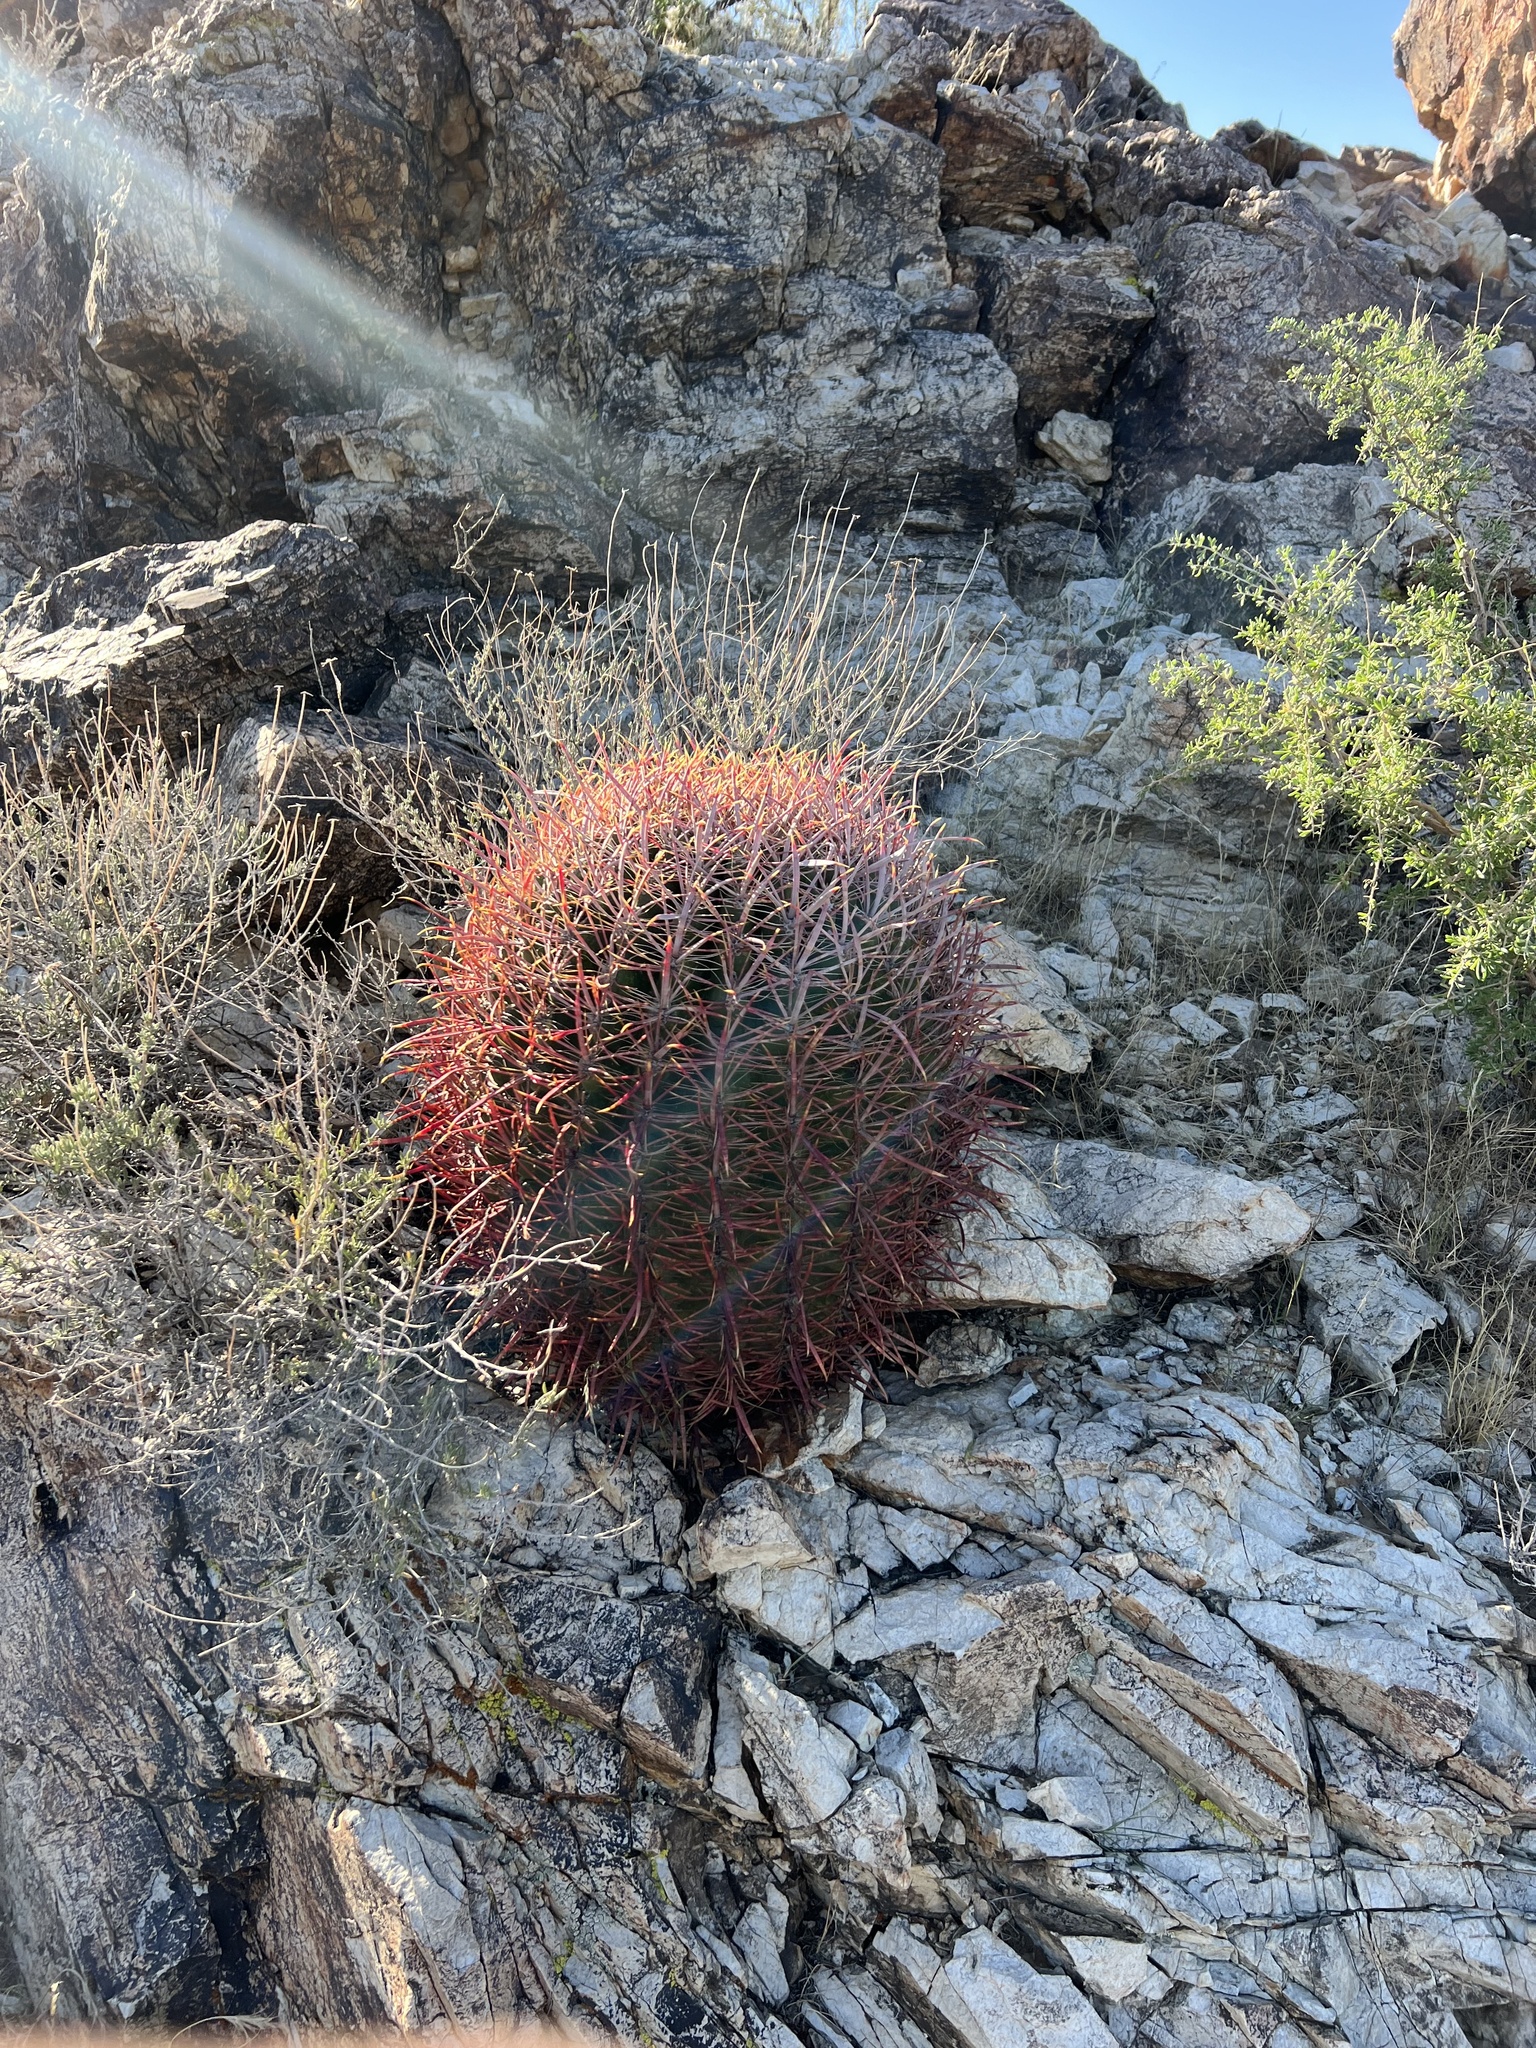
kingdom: Plantae
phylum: Tracheophyta
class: Magnoliopsida
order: Caryophyllales
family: Cactaceae
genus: Ferocactus
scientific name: Ferocactus cylindraceus
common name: California barrel cactus
